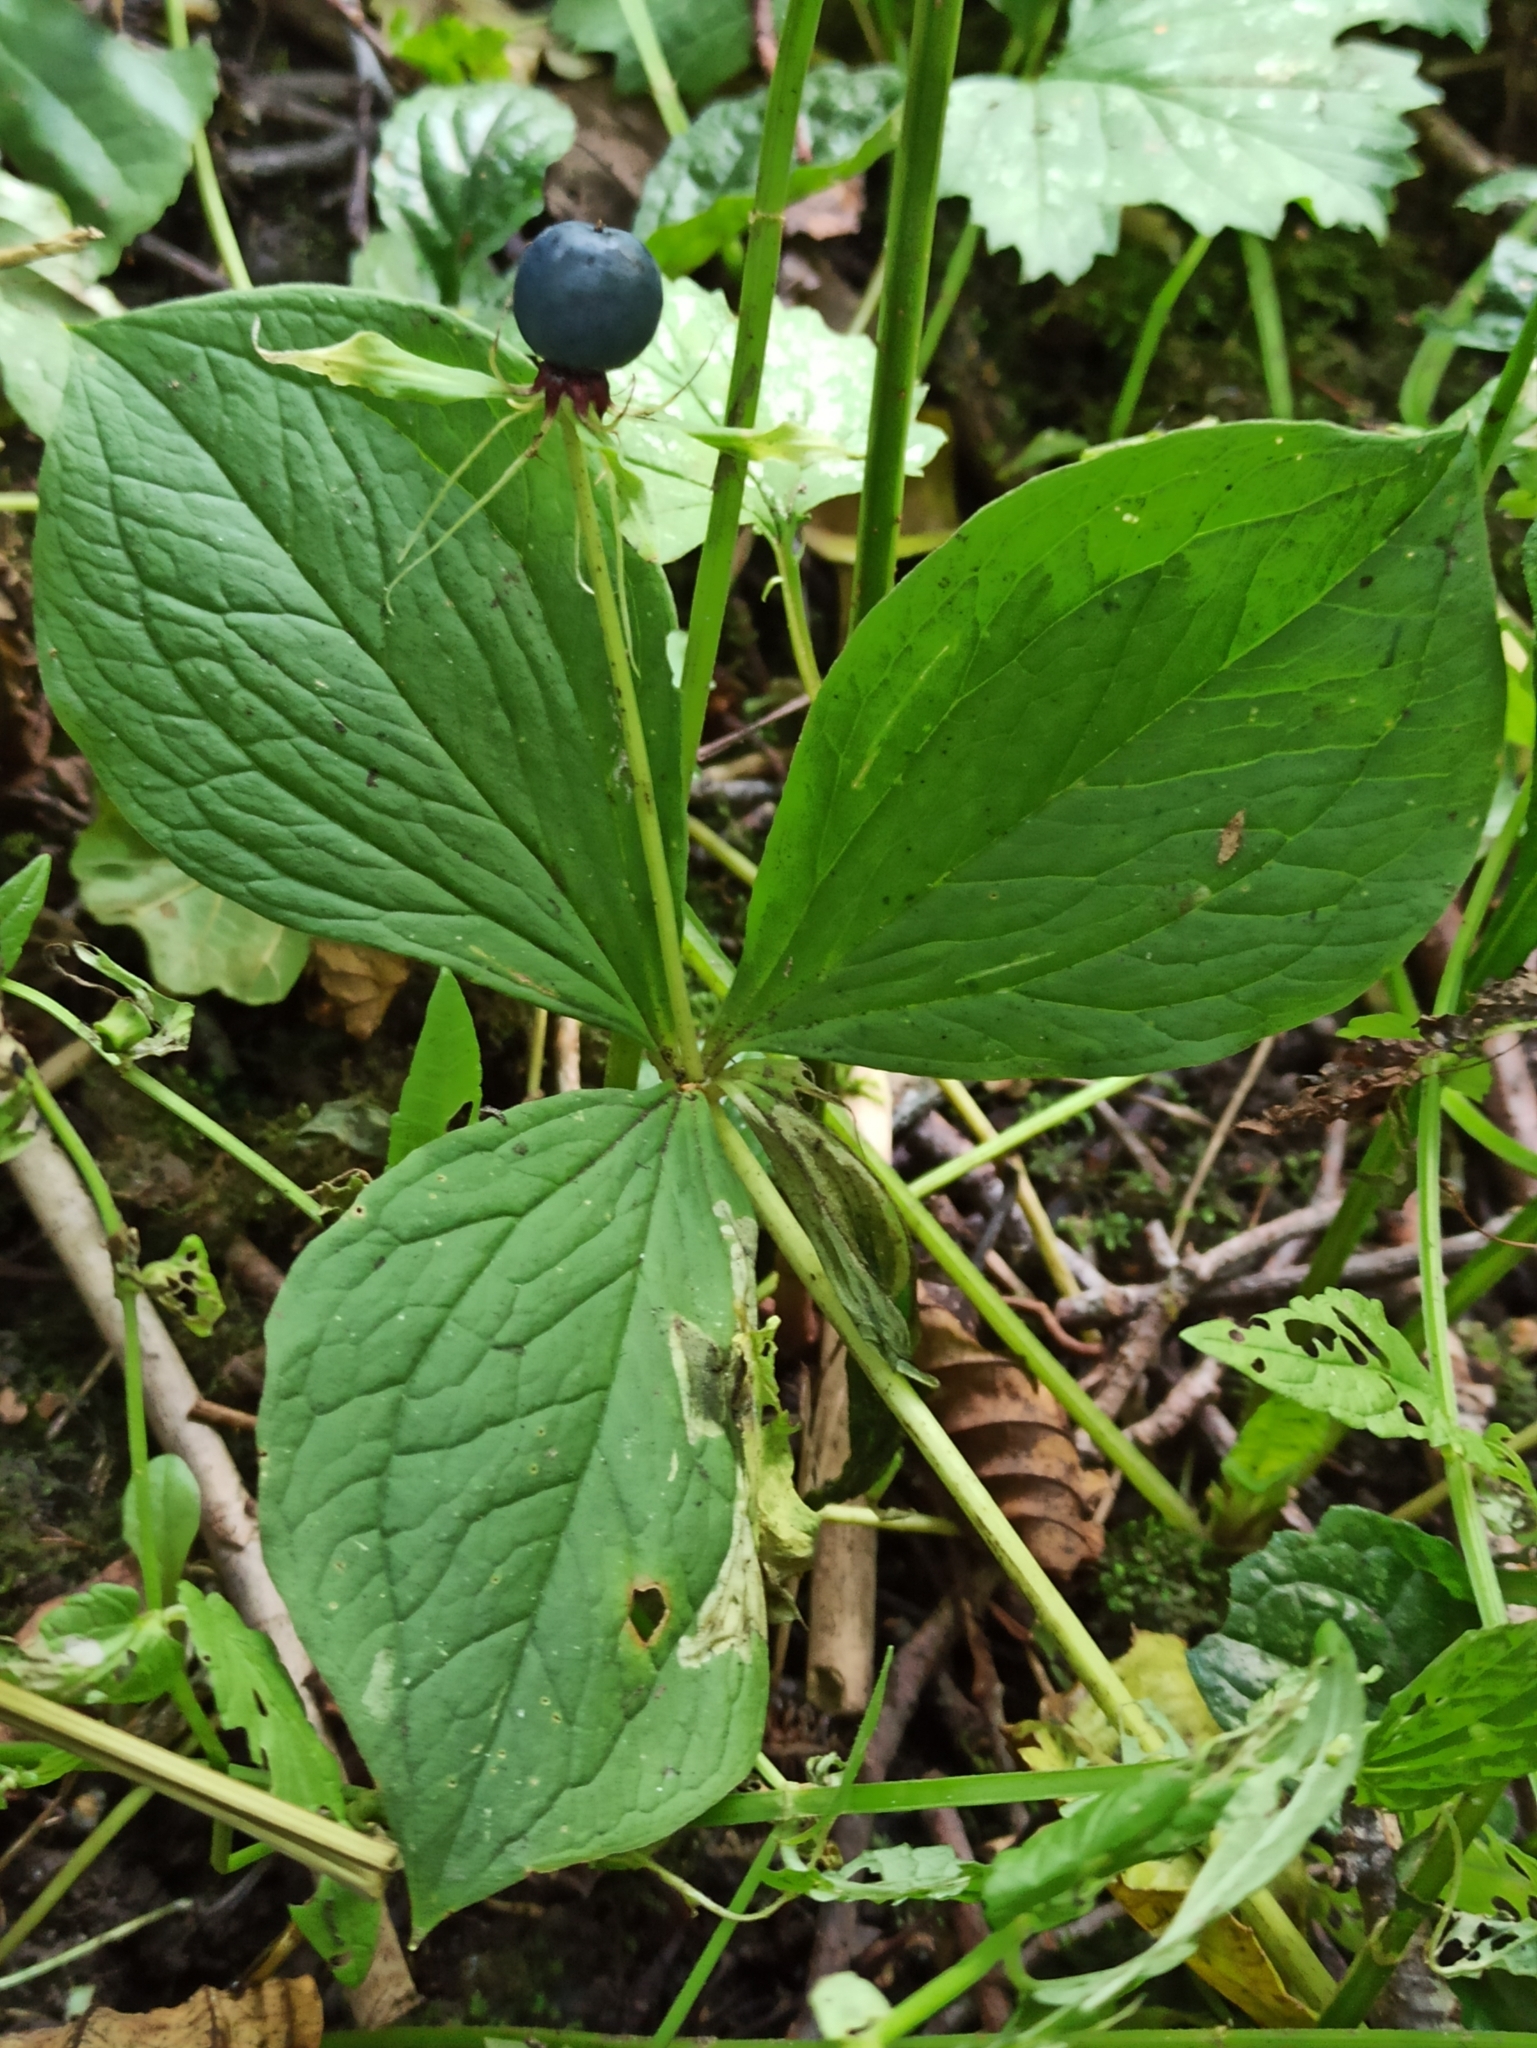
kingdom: Plantae
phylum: Tracheophyta
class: Liliopsida
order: Liliales
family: Melanthiaceae
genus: Paris
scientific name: Paris quadrifolia
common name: Herb-paris
